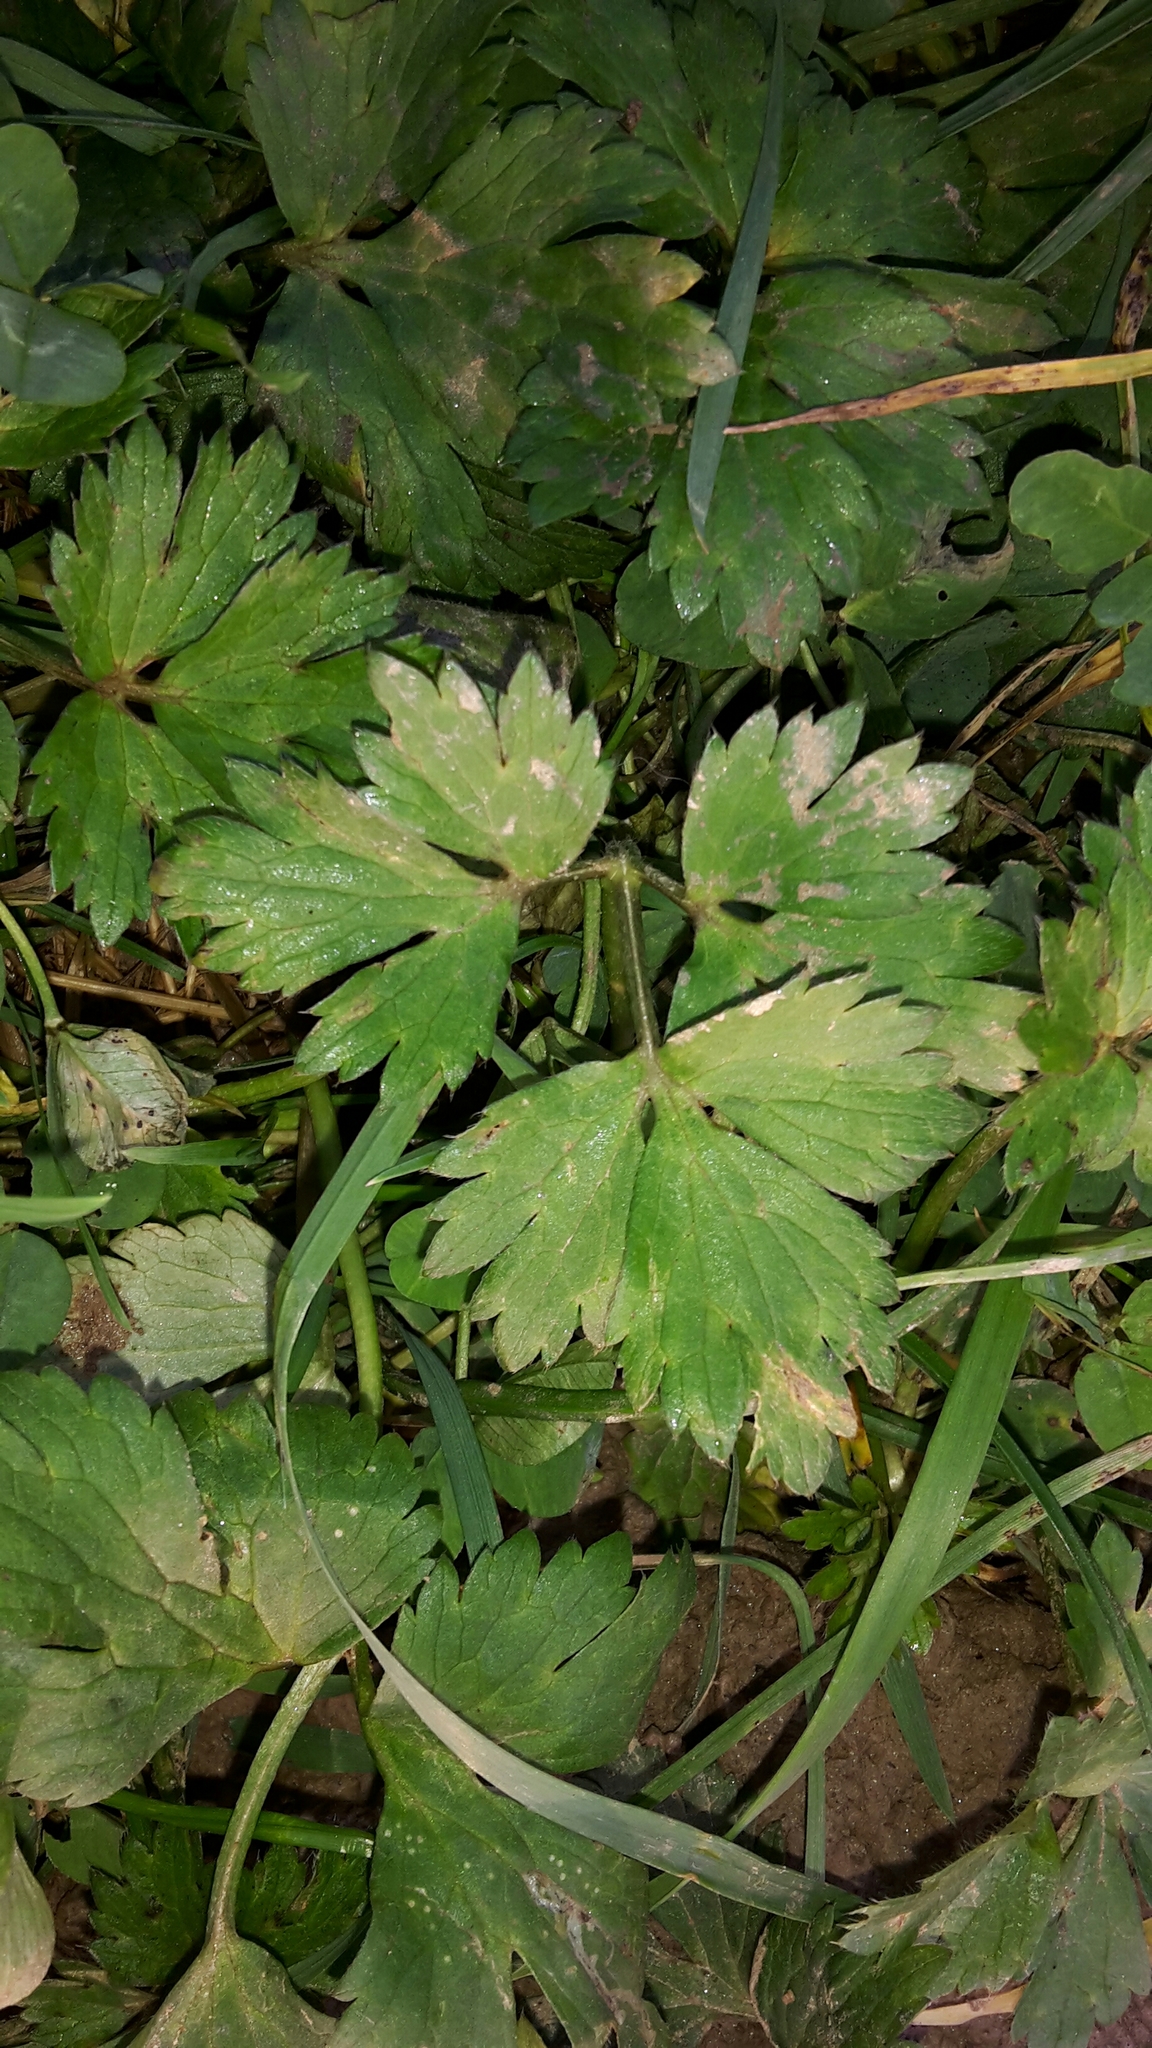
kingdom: Plantae
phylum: Tracheophyta
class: Magnoliopsida
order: Ranunculales
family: Ranunculaceae
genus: Ranunculus
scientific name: Ranunculus repens
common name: Creeping buttercup
